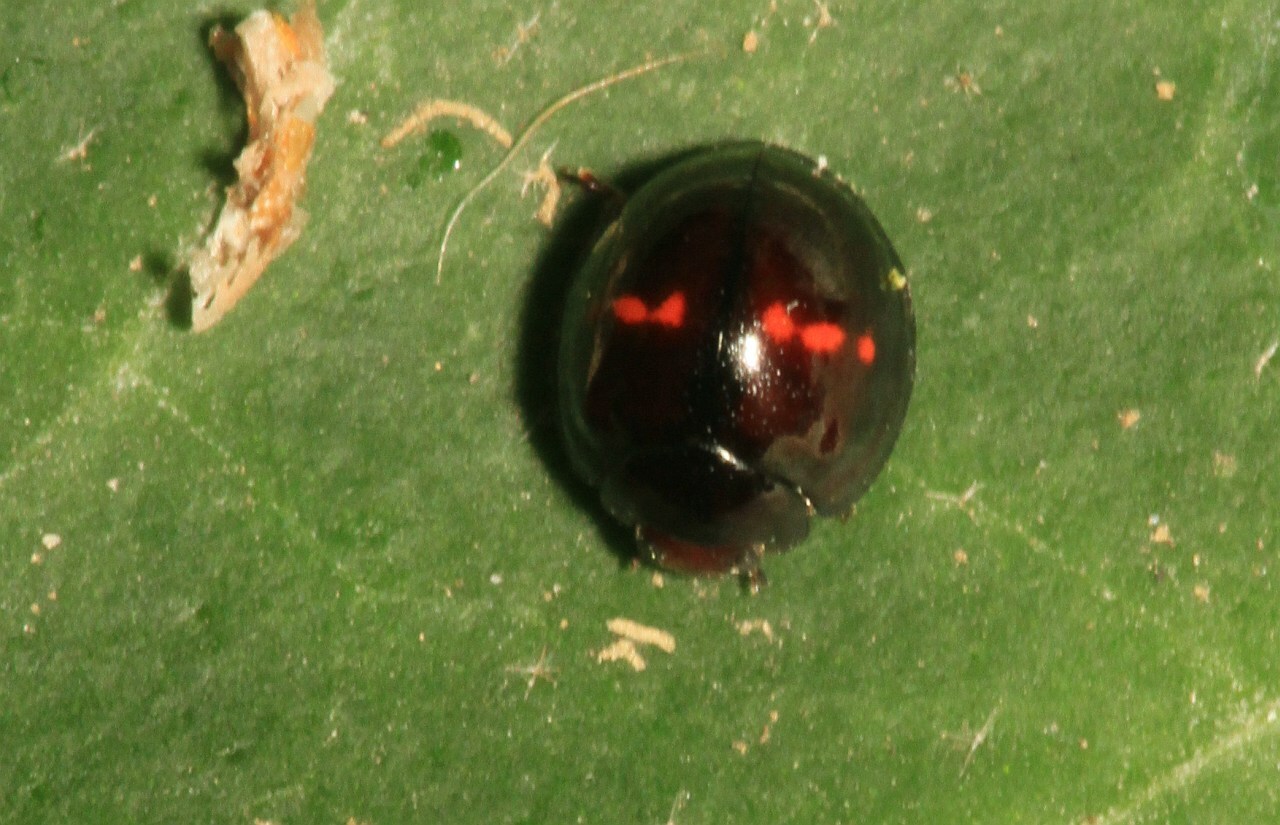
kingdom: Animalia
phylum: Arthropoda
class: Insecta
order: Coleoptera
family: Coccinellidae
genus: Chilocorus
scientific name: Chilocorus bipustulatus
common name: Heather ladybird
